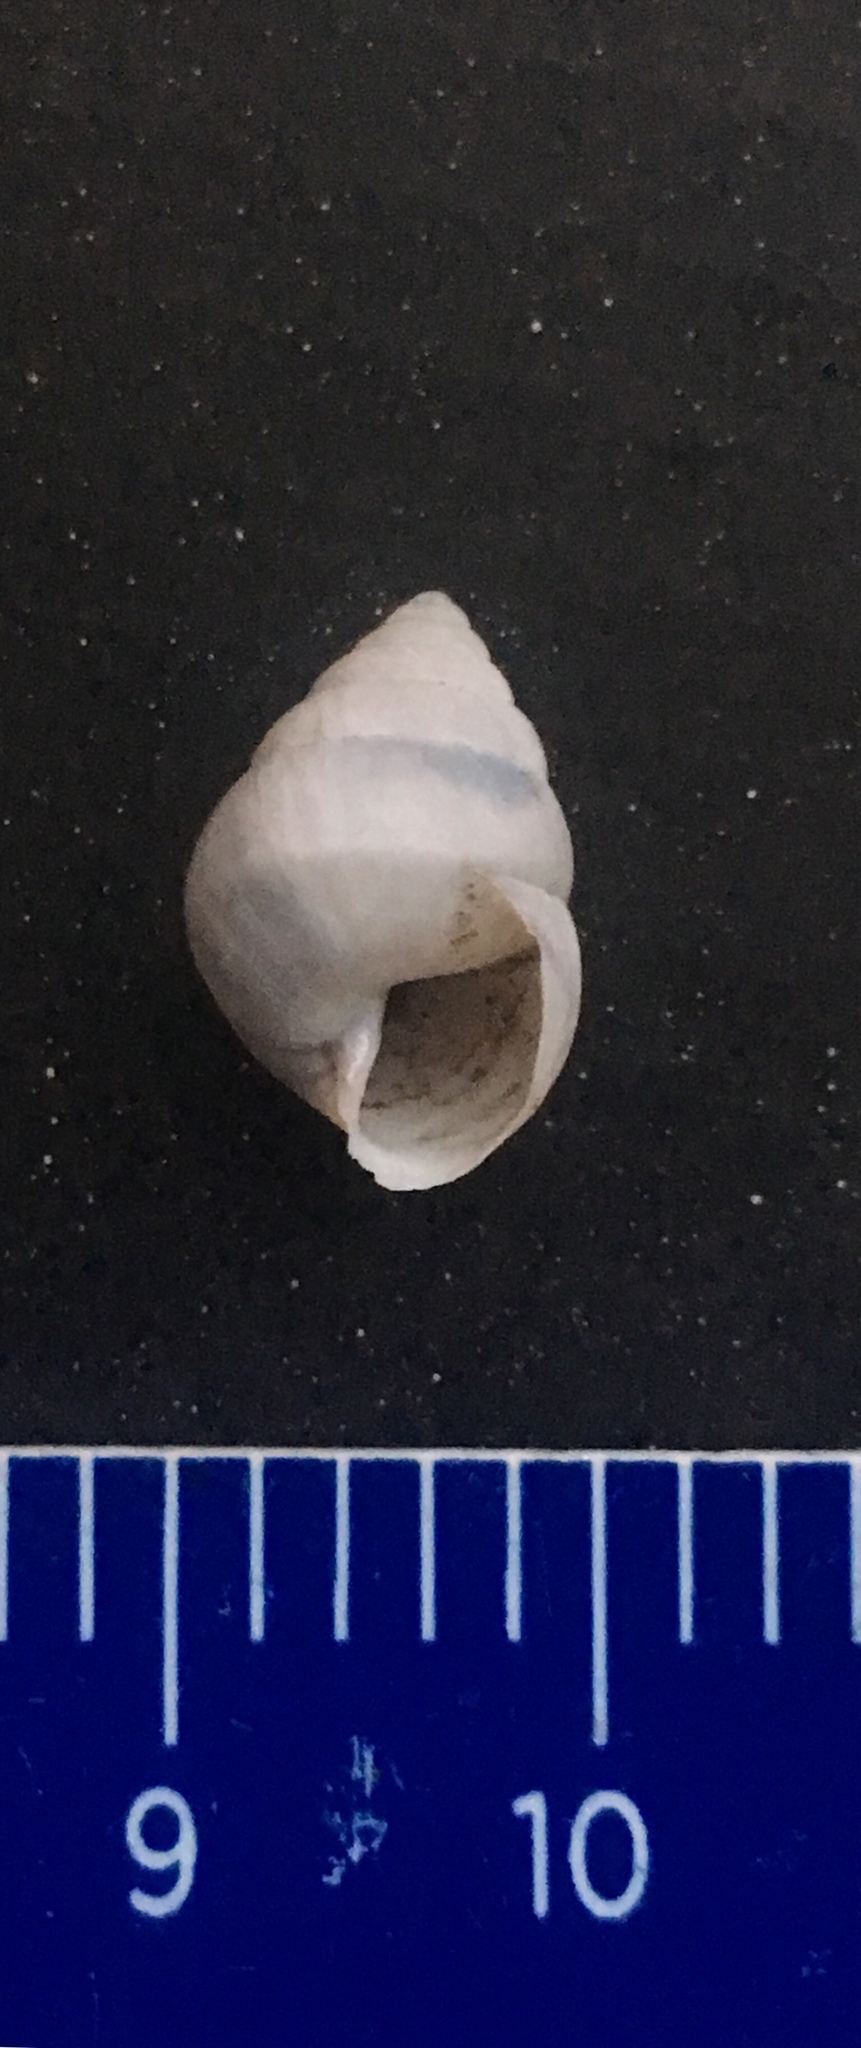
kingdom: Animalia
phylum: Mollusca
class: Gastropoda
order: Stylommatophora
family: Odontostomidae
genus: Plagiodontes
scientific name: Plagiodontes patagonicus
